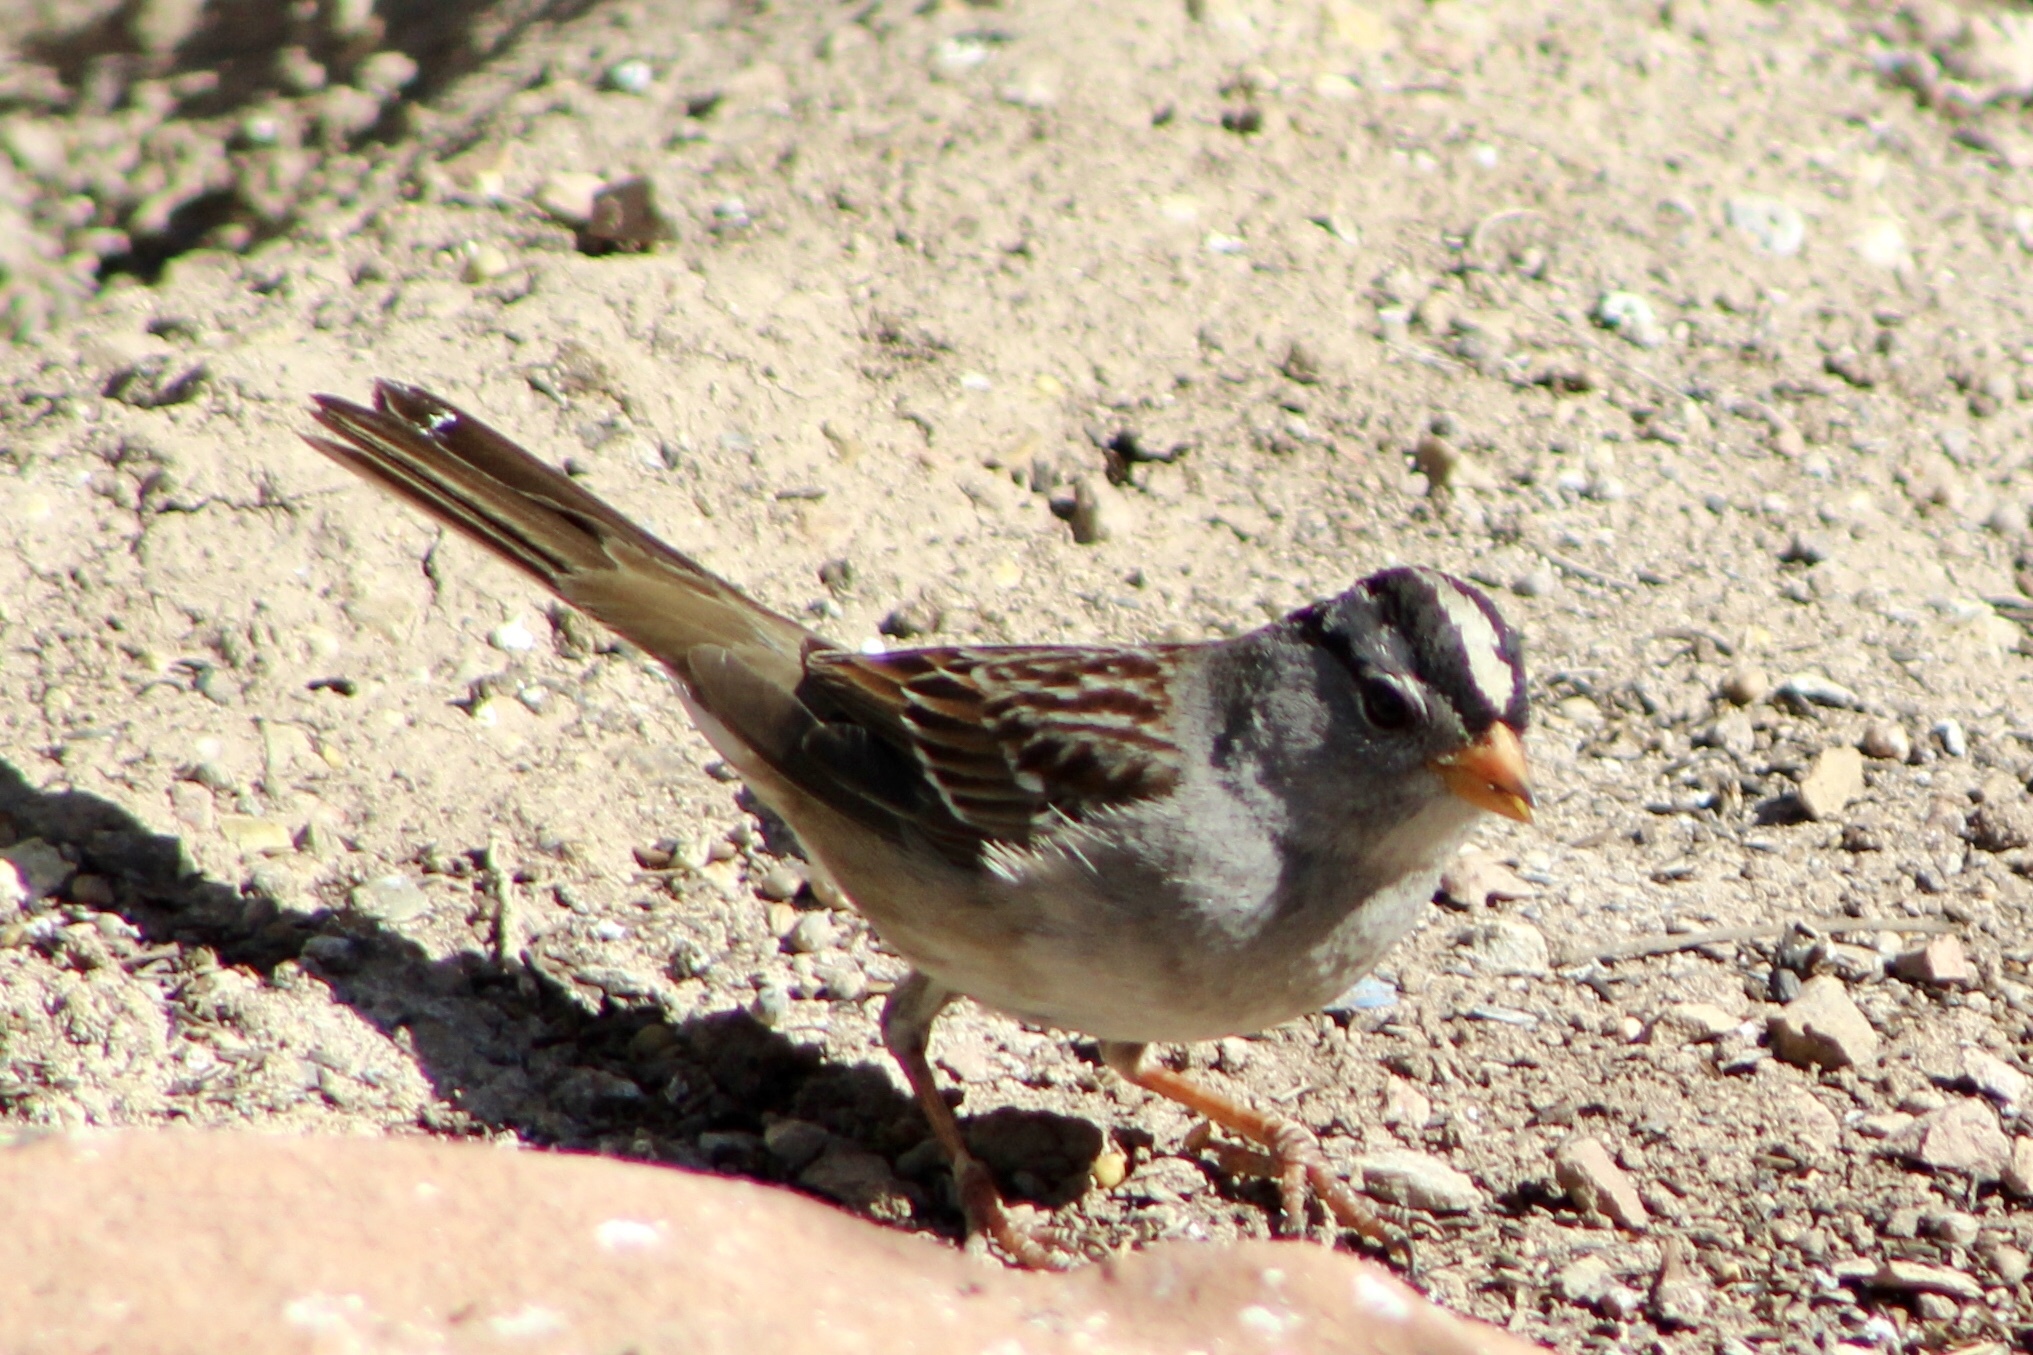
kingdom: Animalia
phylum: Chordata
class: Aves
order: Passeriformes
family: Passerellidae
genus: Zonotrichia
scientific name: Zonotrichia leucophrys
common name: White-crowned sparrow
